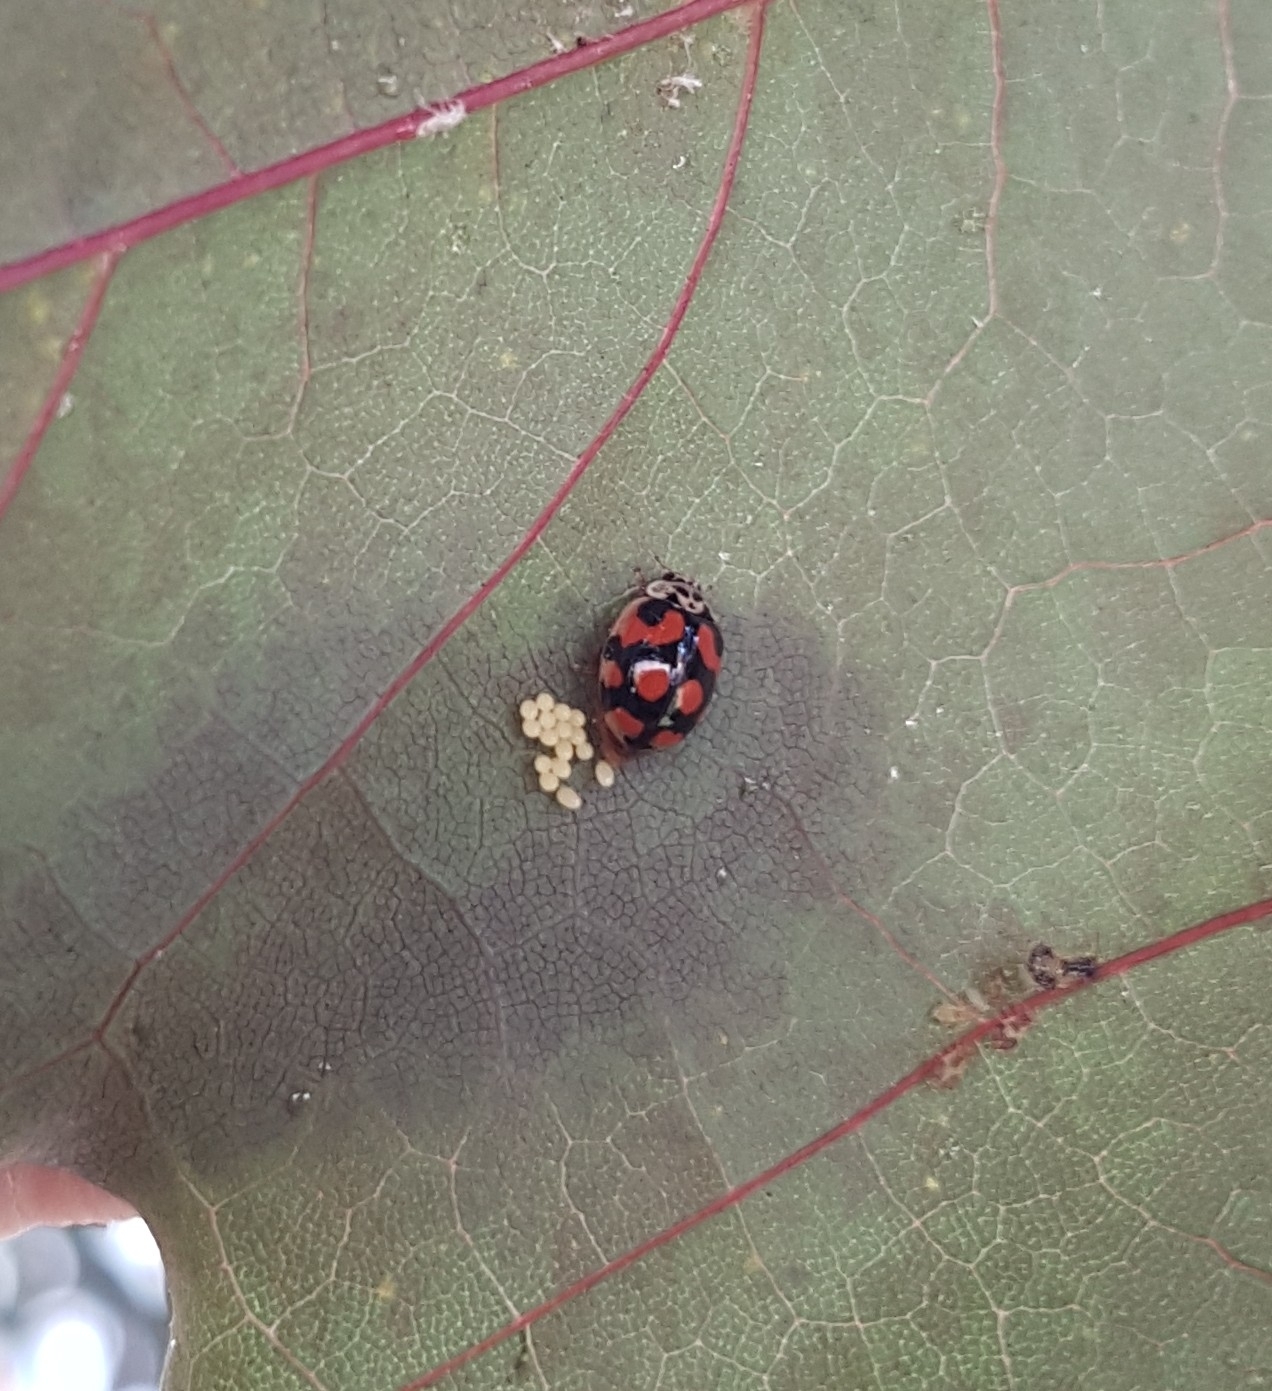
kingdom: Animalia
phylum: Arthropoda
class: Insecta
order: Coleoptera
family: Coccinellidae
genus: Adalia
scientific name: Adalia decempunctata
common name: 10-spot ladybird
